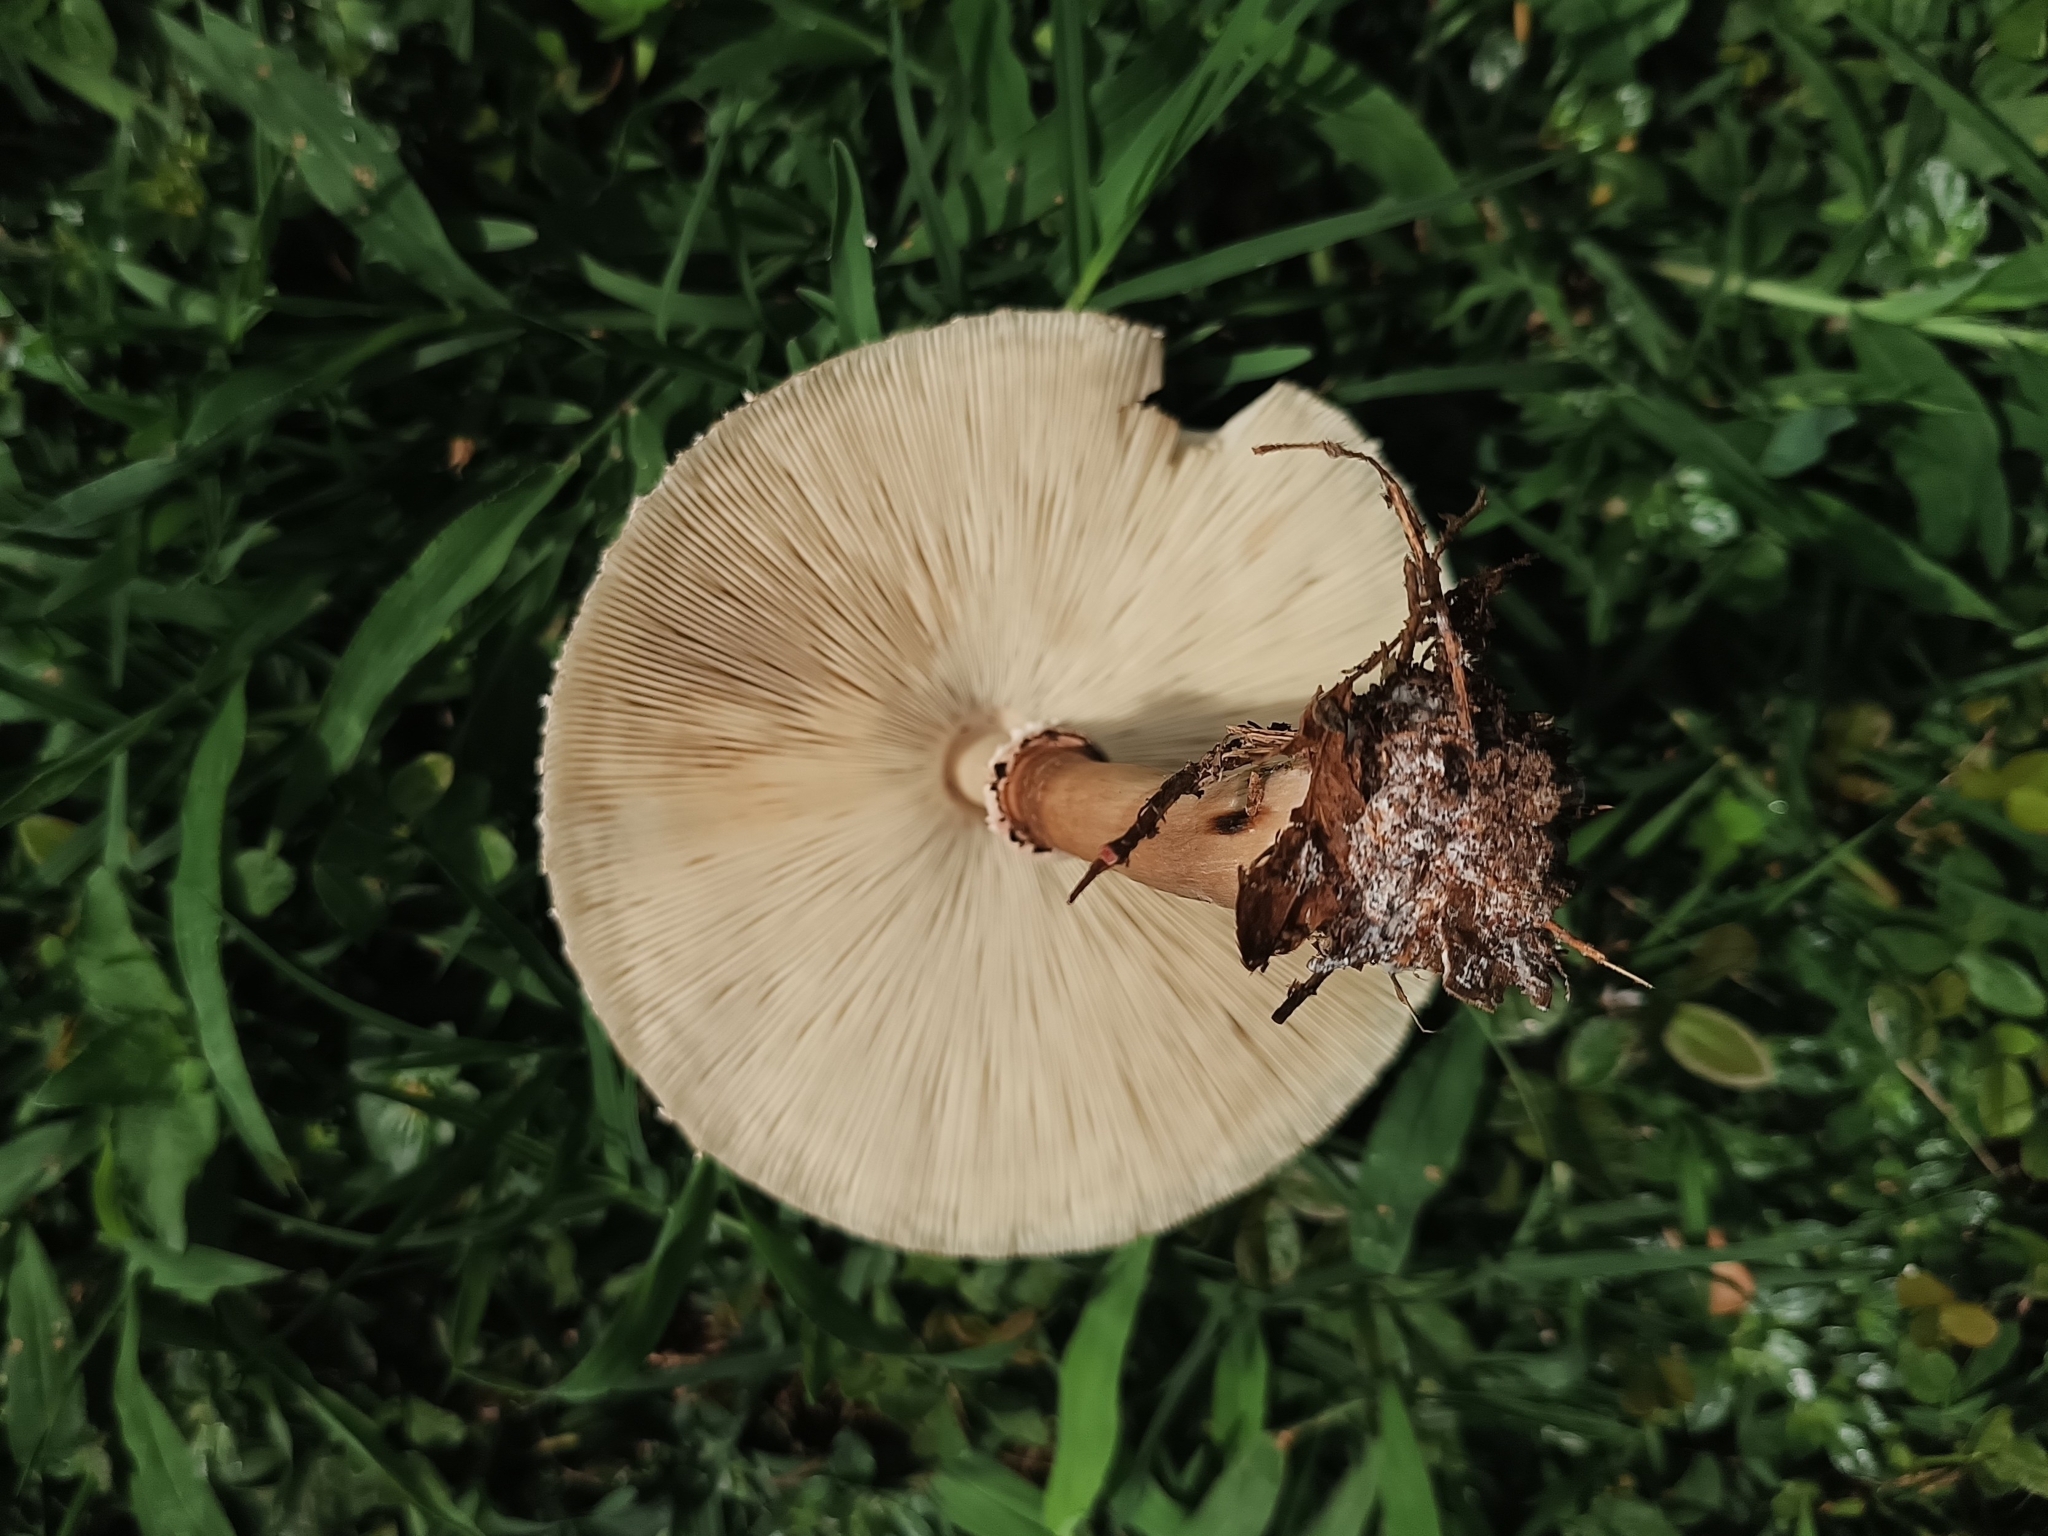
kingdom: Fungi
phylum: Basidiomycota
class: Agaricomycetes
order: Agaricales
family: Agaricaceae
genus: Chlorophyllum
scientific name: Chlorophyllum molybdites
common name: False parasol
